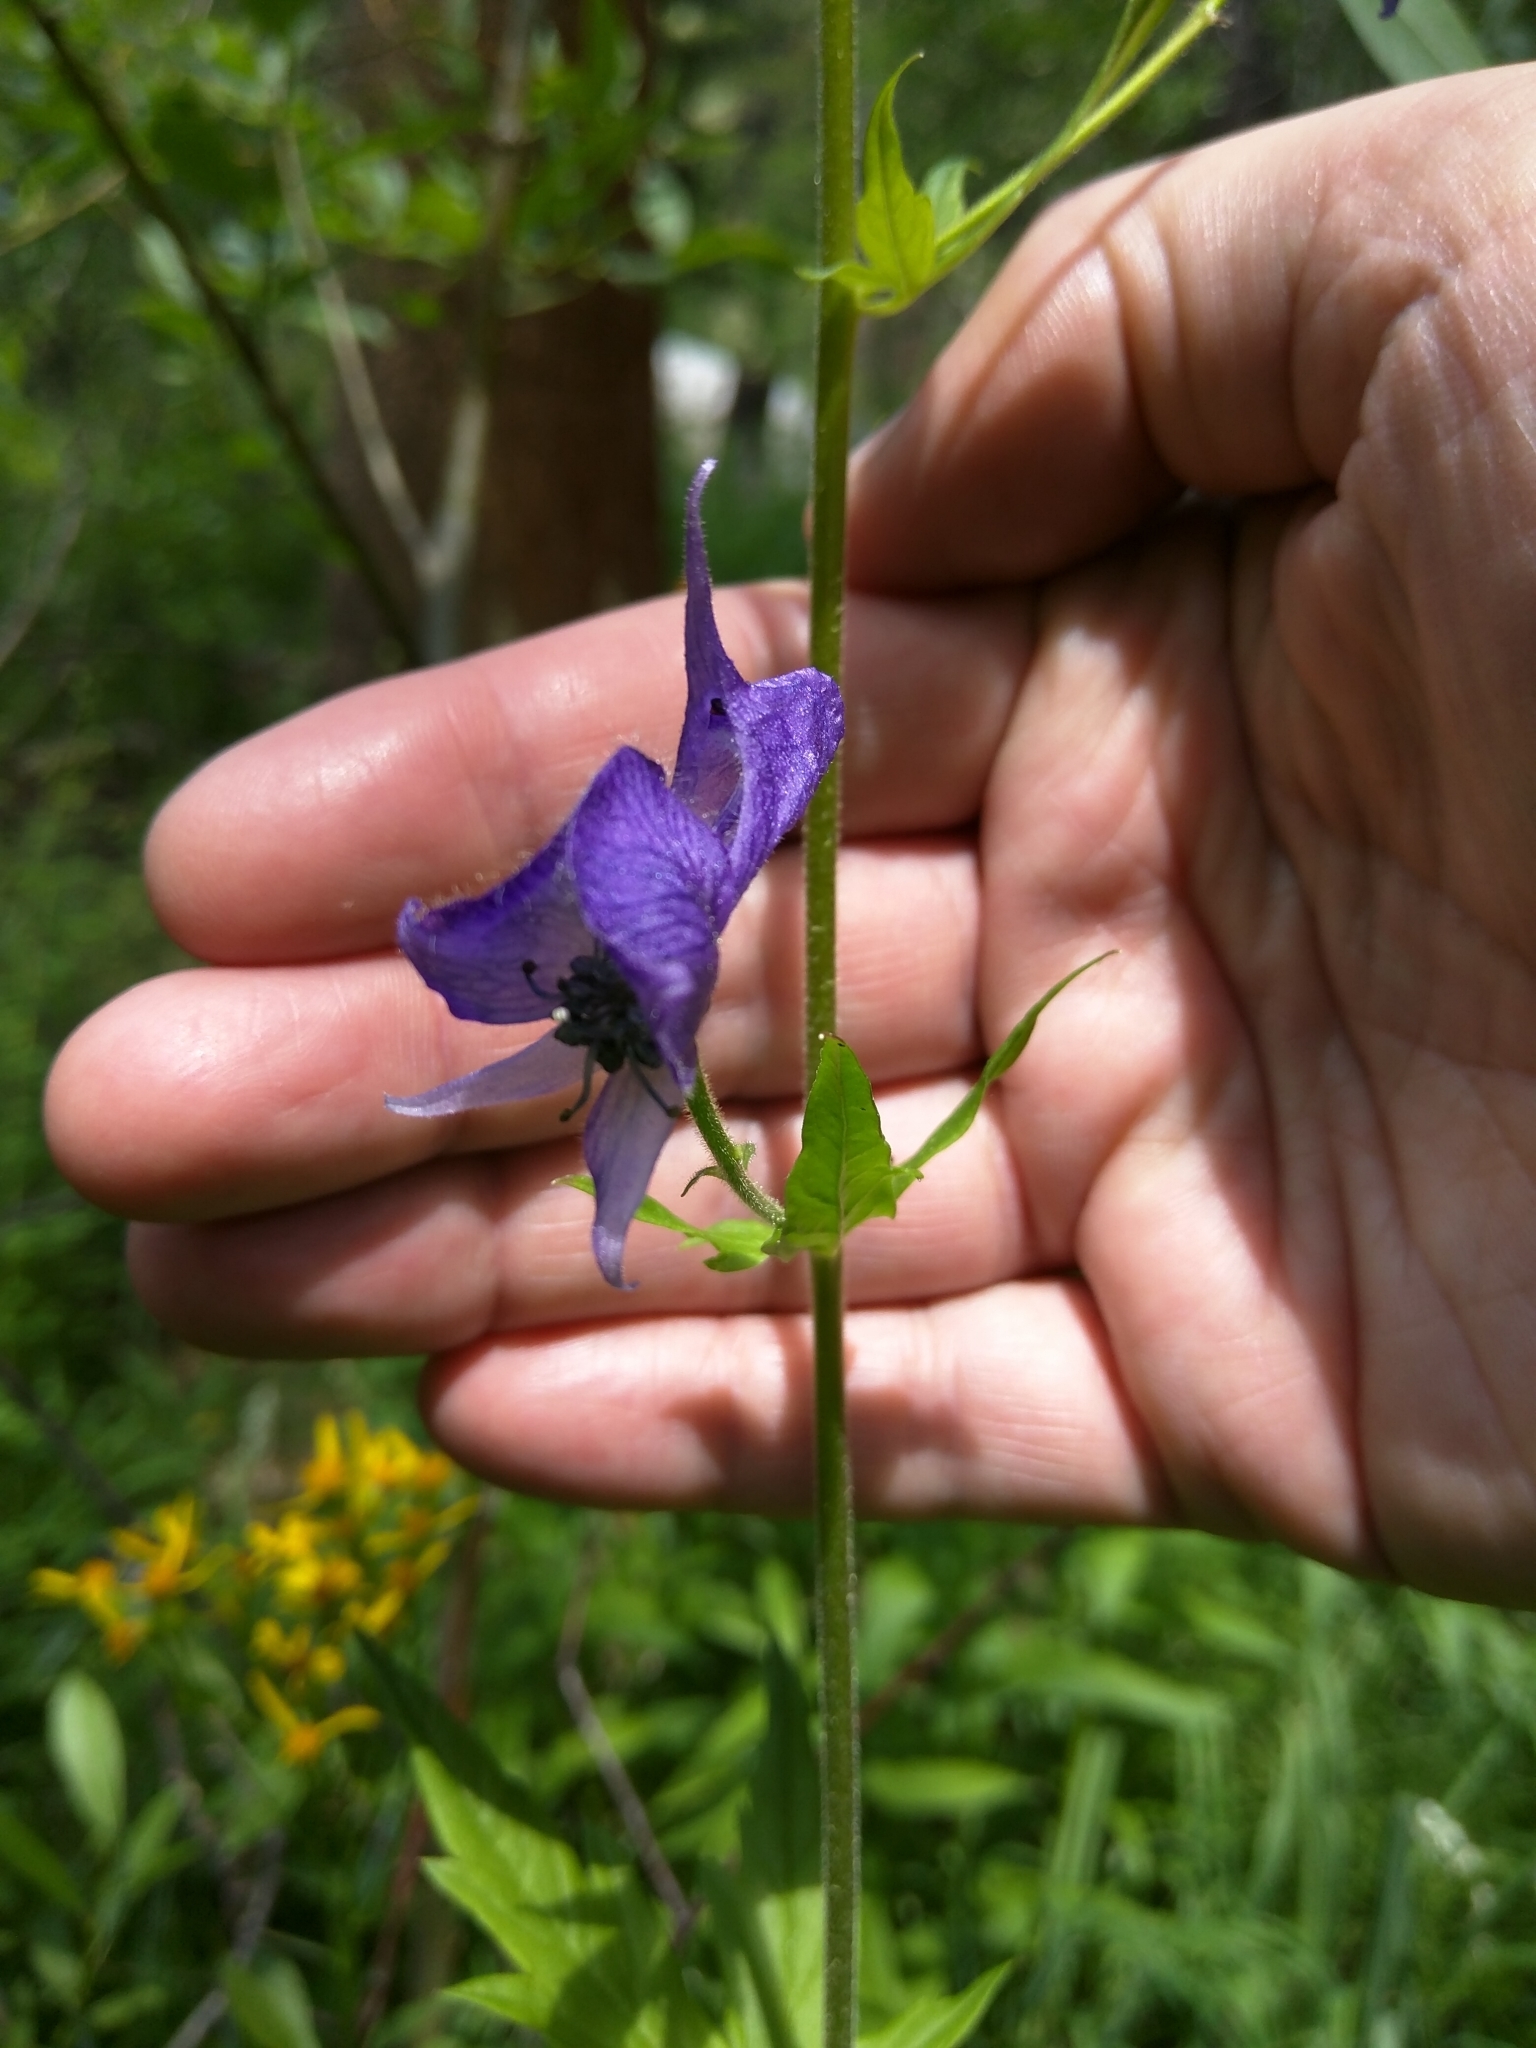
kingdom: Plantae
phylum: Tracheophyta
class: Magnoliopsida
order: Ranunculales
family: Ranunculaceae
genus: Aconitum
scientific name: Aconitum columbianum
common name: Columbia aconite
